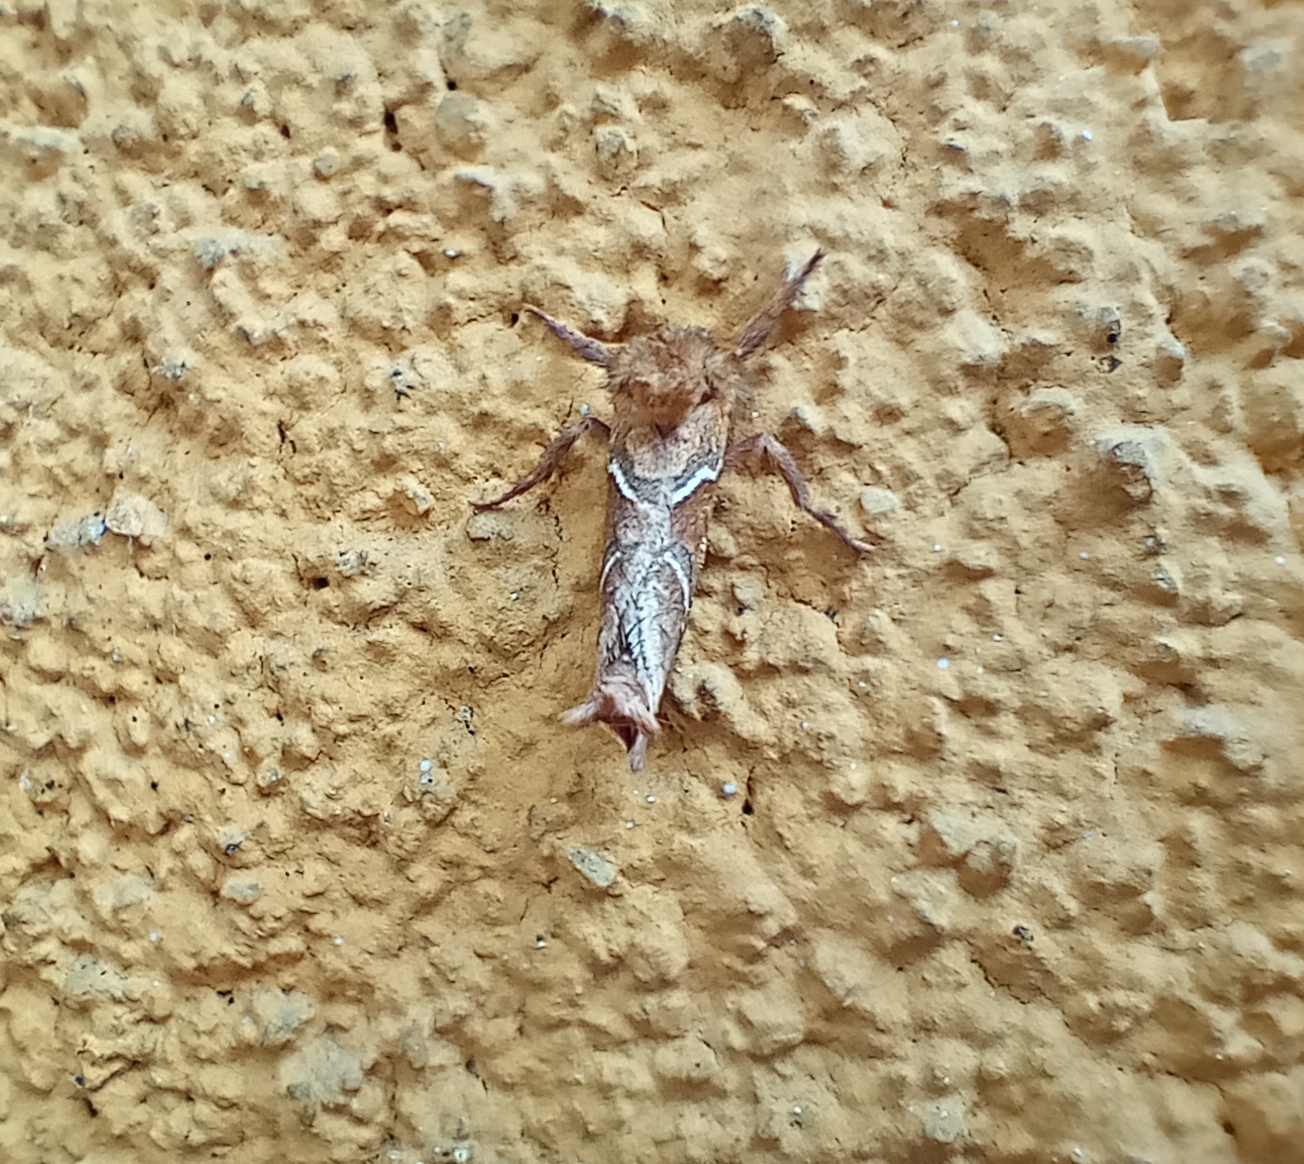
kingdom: Animalia
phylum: Arthropoda
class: Insecta
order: Lepidoptera
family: Hepialidae
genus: Triodia
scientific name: Triodia sylvina
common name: Orange swift
